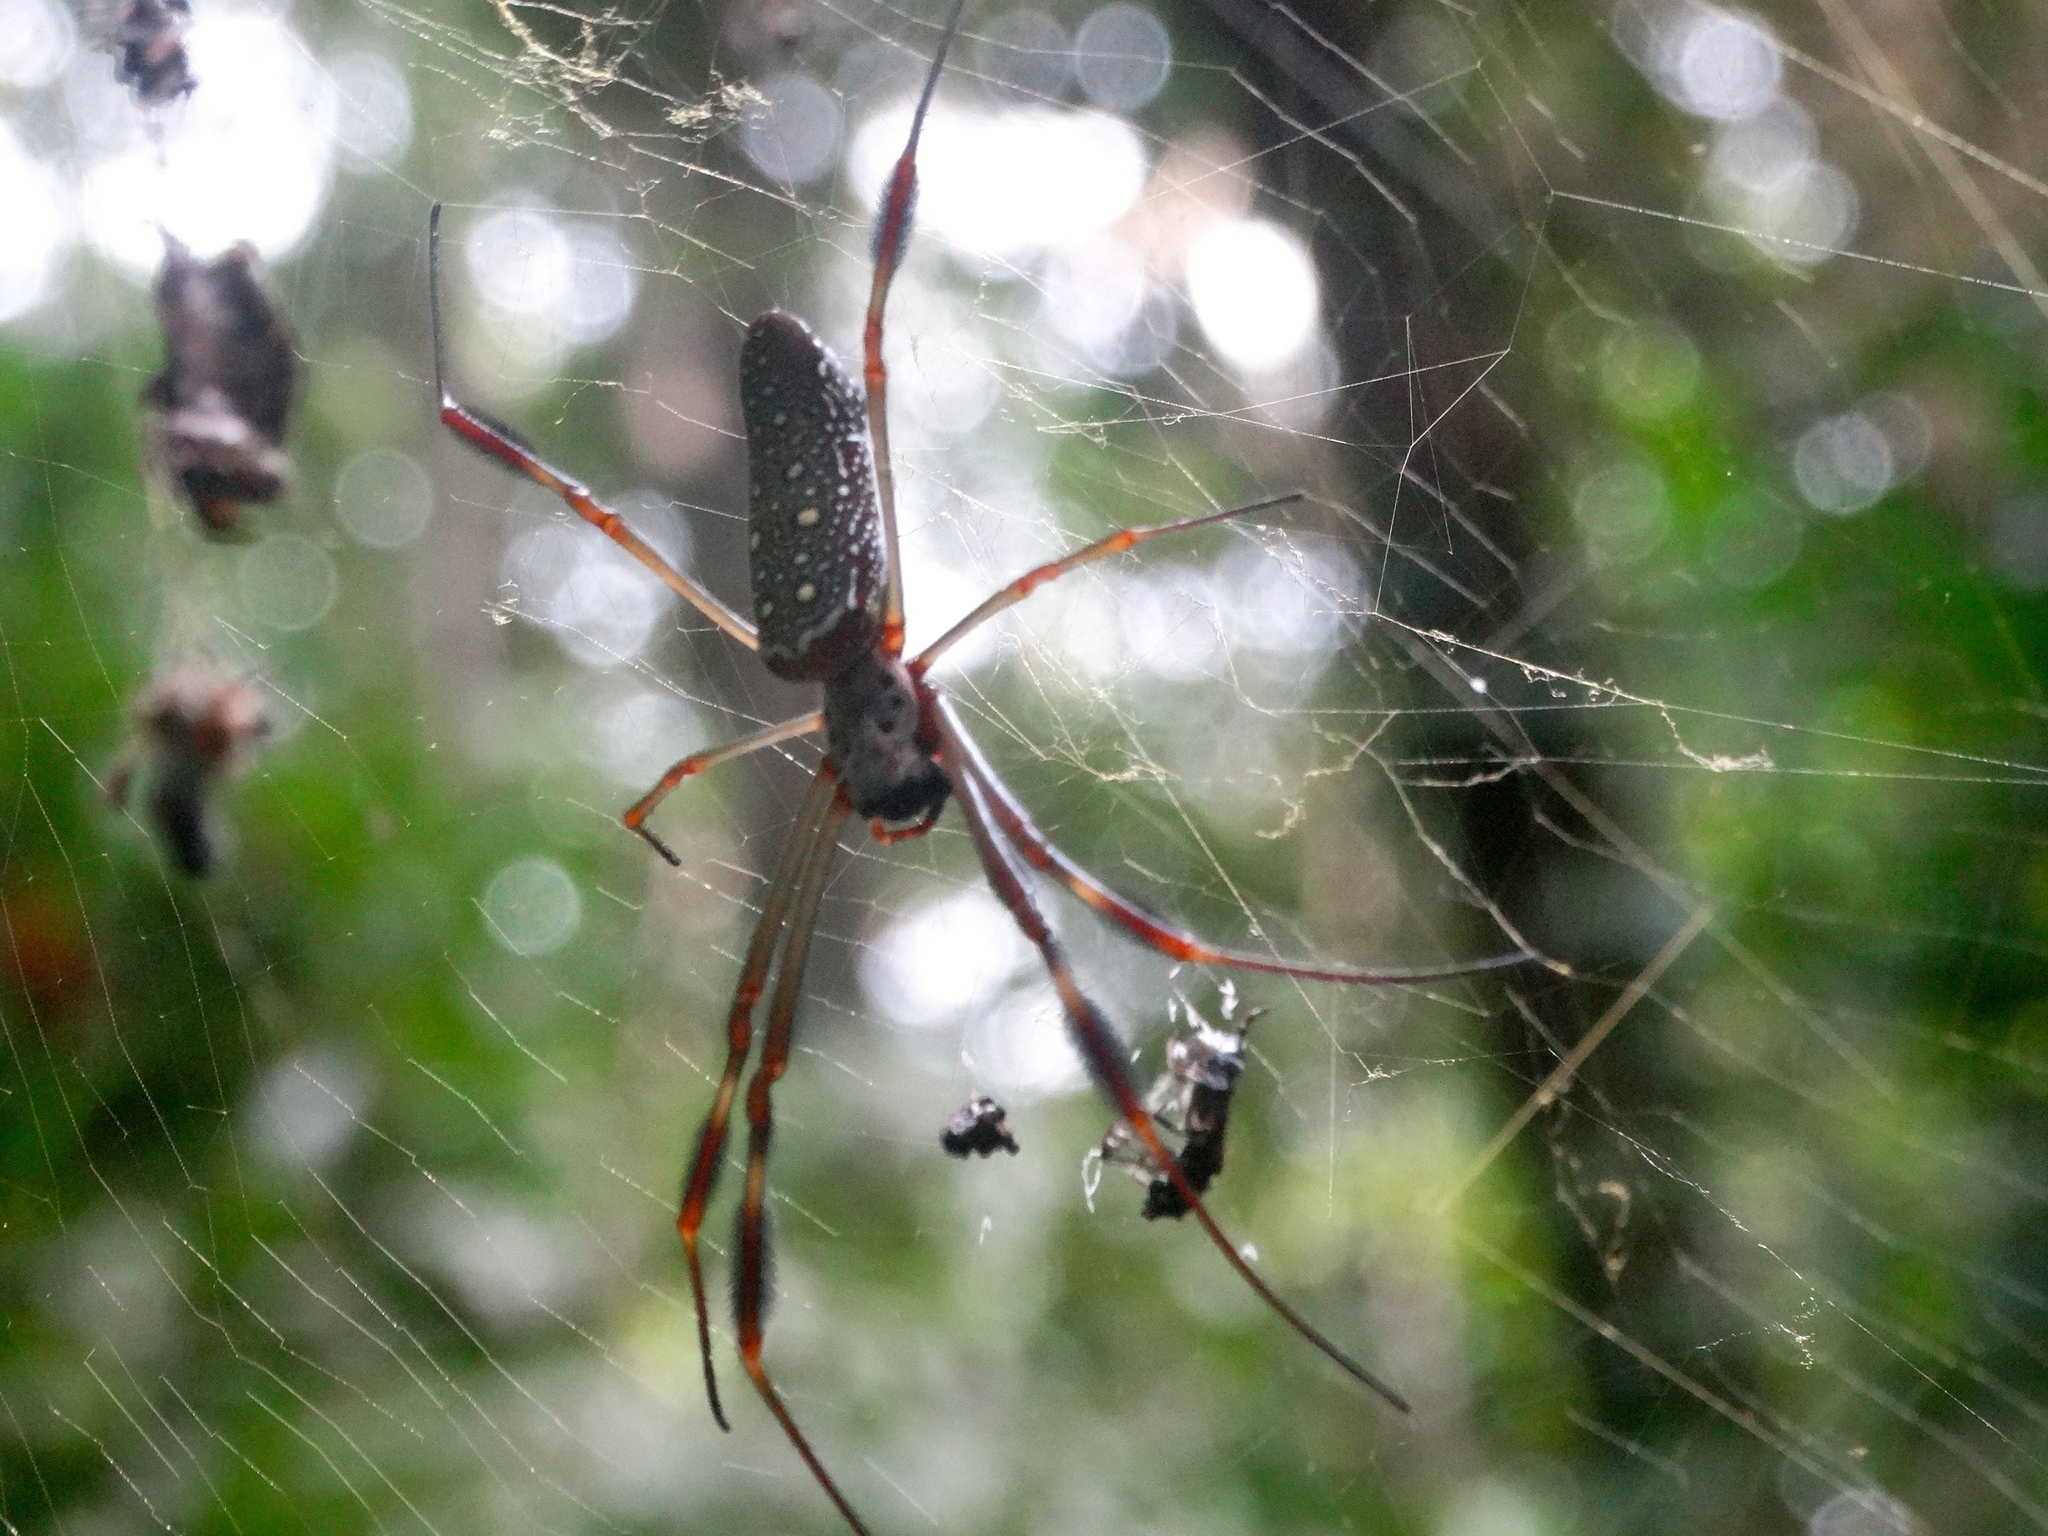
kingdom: Animalia
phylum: Arthropoda
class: Arachnida
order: Araneae
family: Araneidae
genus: Trichonephila
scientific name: Trichonephila clavipes
